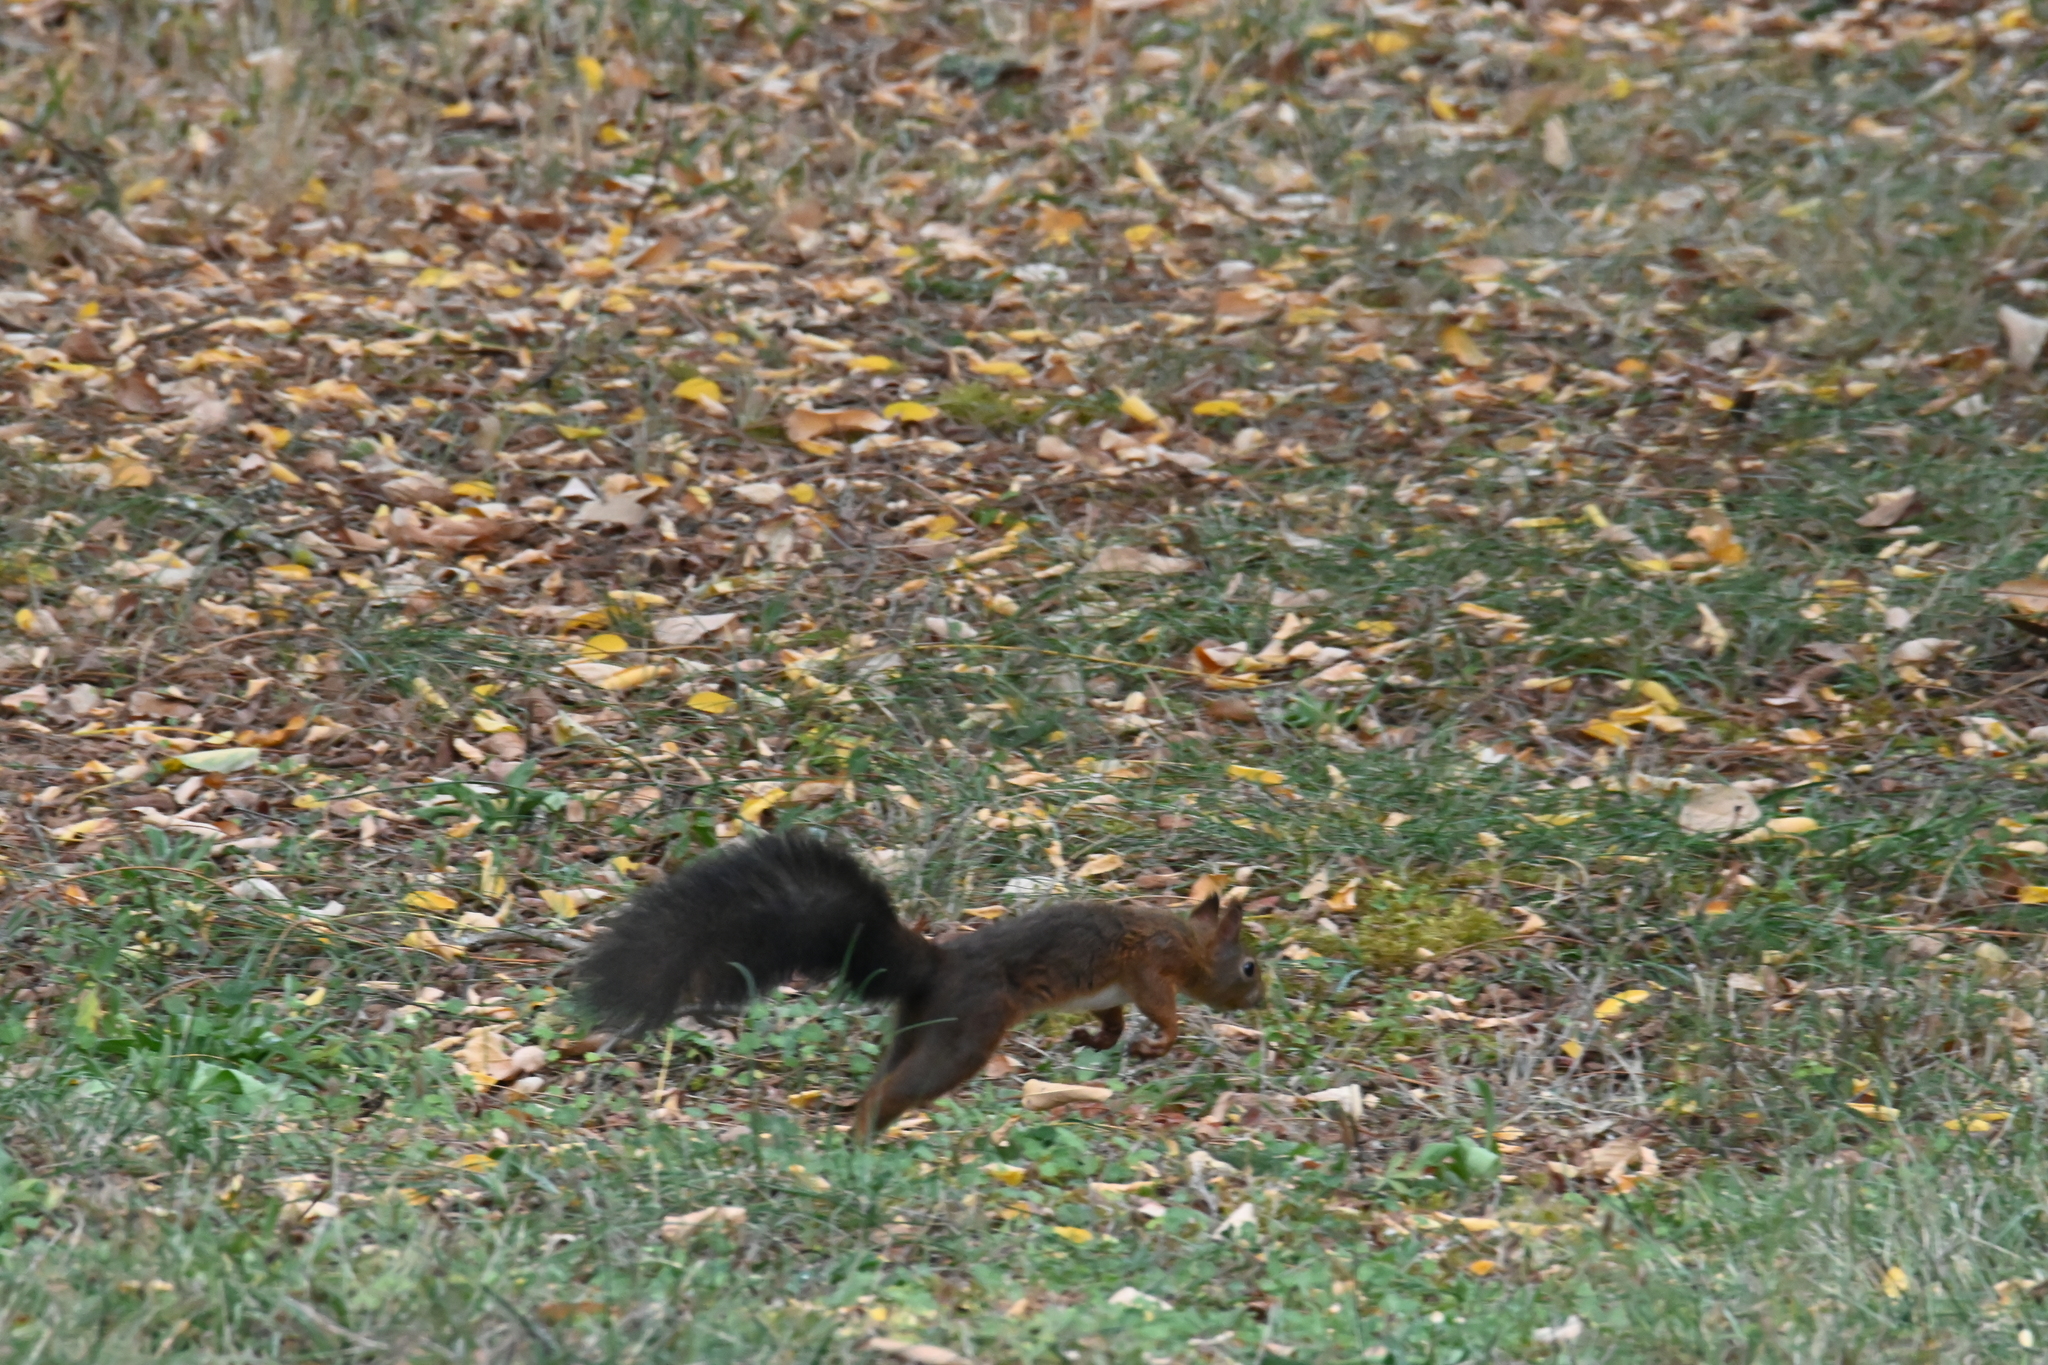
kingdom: Animalia
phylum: Chordata
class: Mammalia
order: Rodentia
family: Sciuridae
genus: Sciurus
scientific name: Sciurus vulgaris
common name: Eurasian red squirrel
